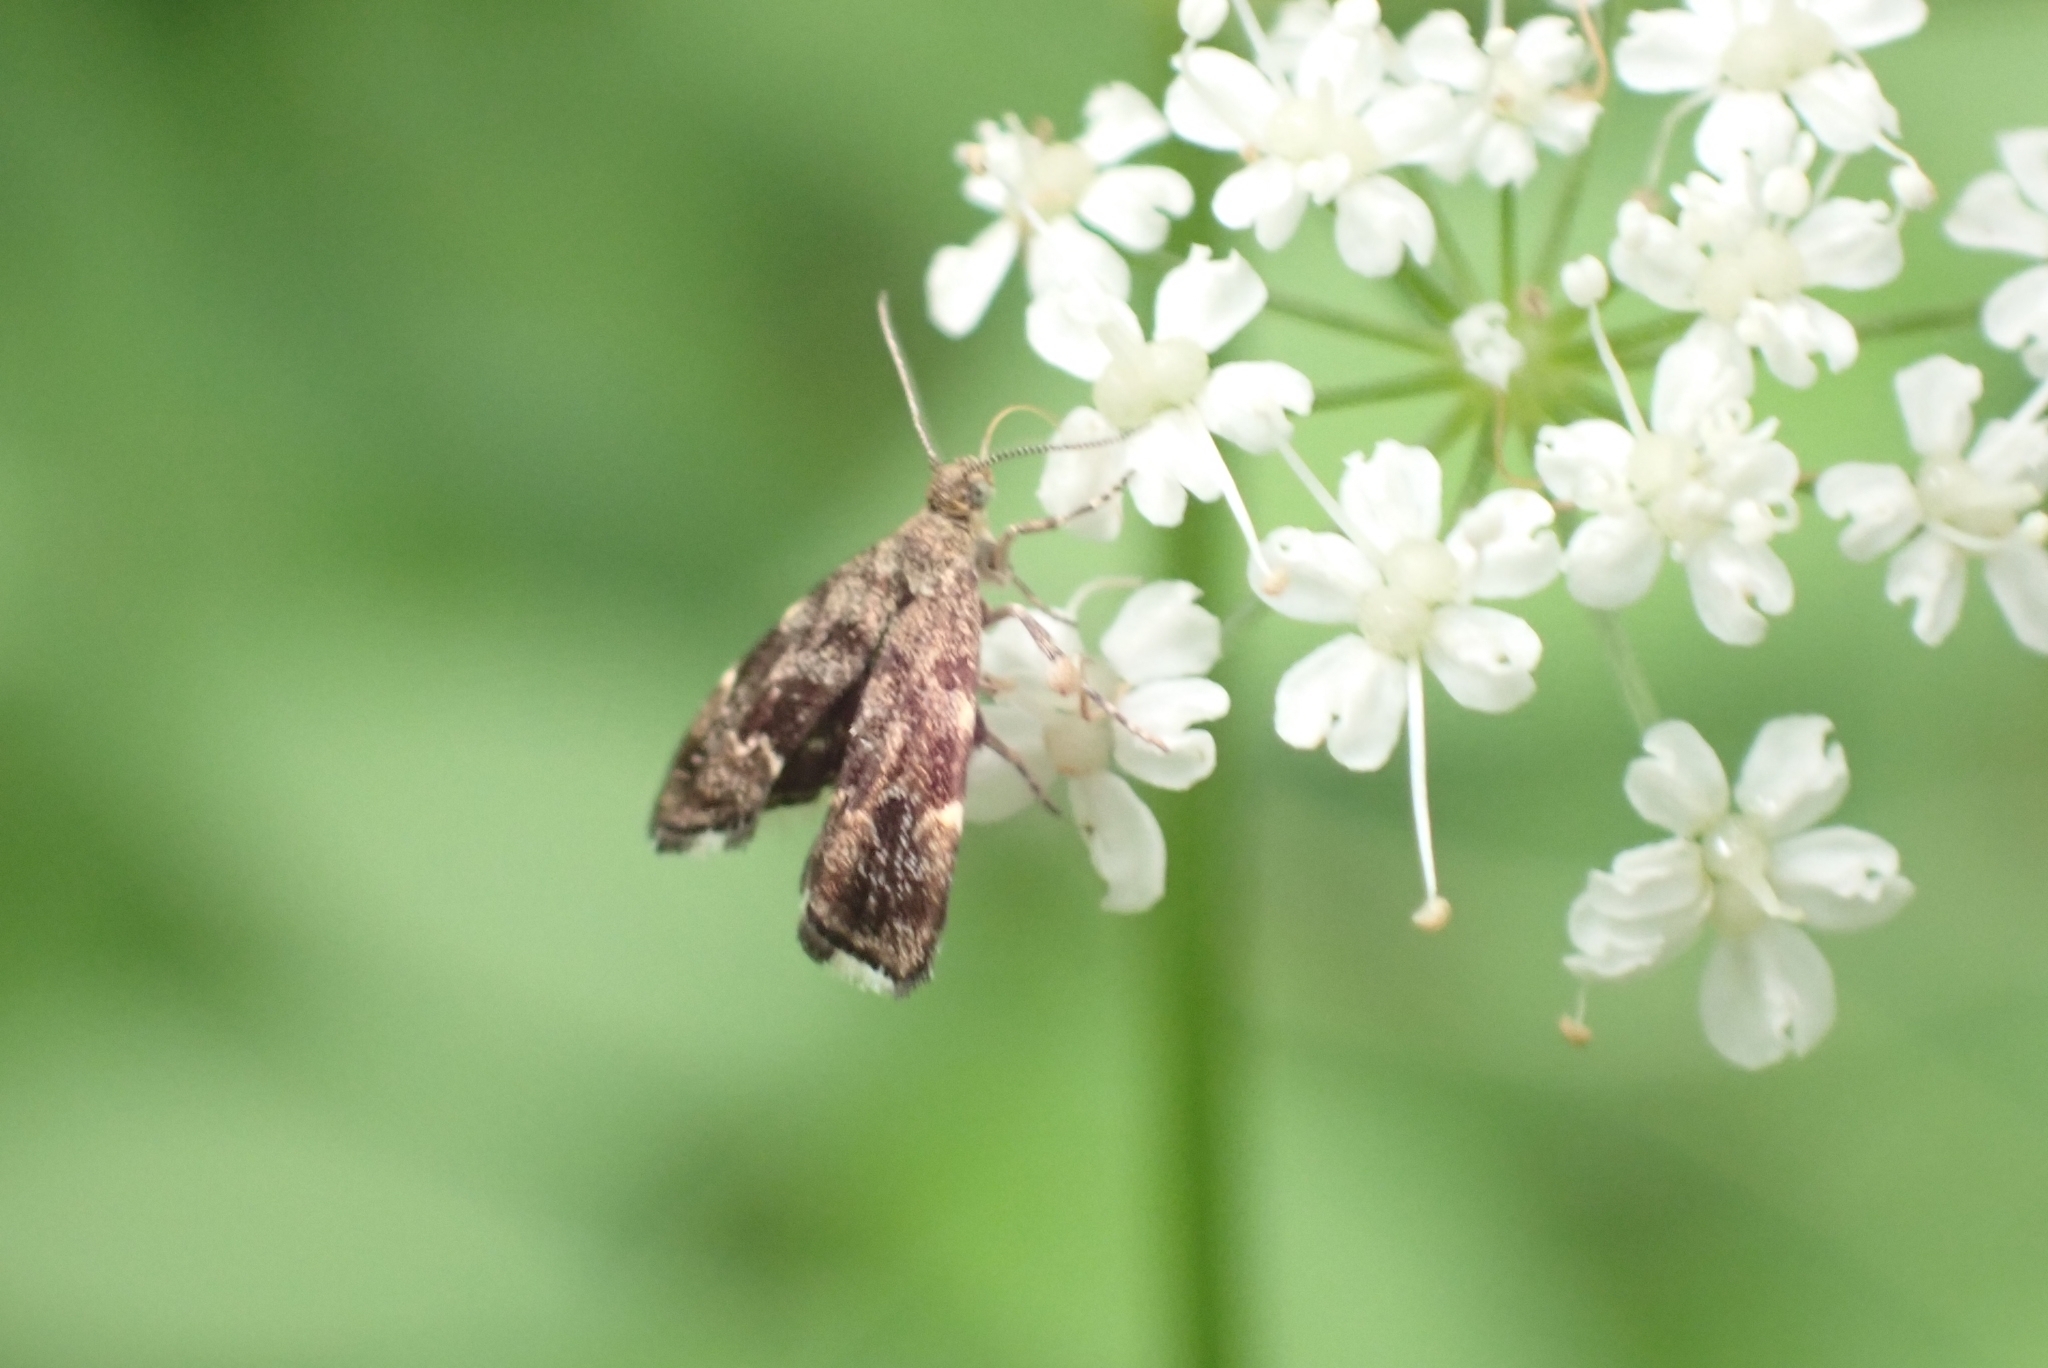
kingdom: Animalia
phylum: Arthropoda
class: Insecta
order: Lepidoptera
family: Choreutidae
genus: Anthophila
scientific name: Anthophila fabriciana
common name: Nettle-tap
